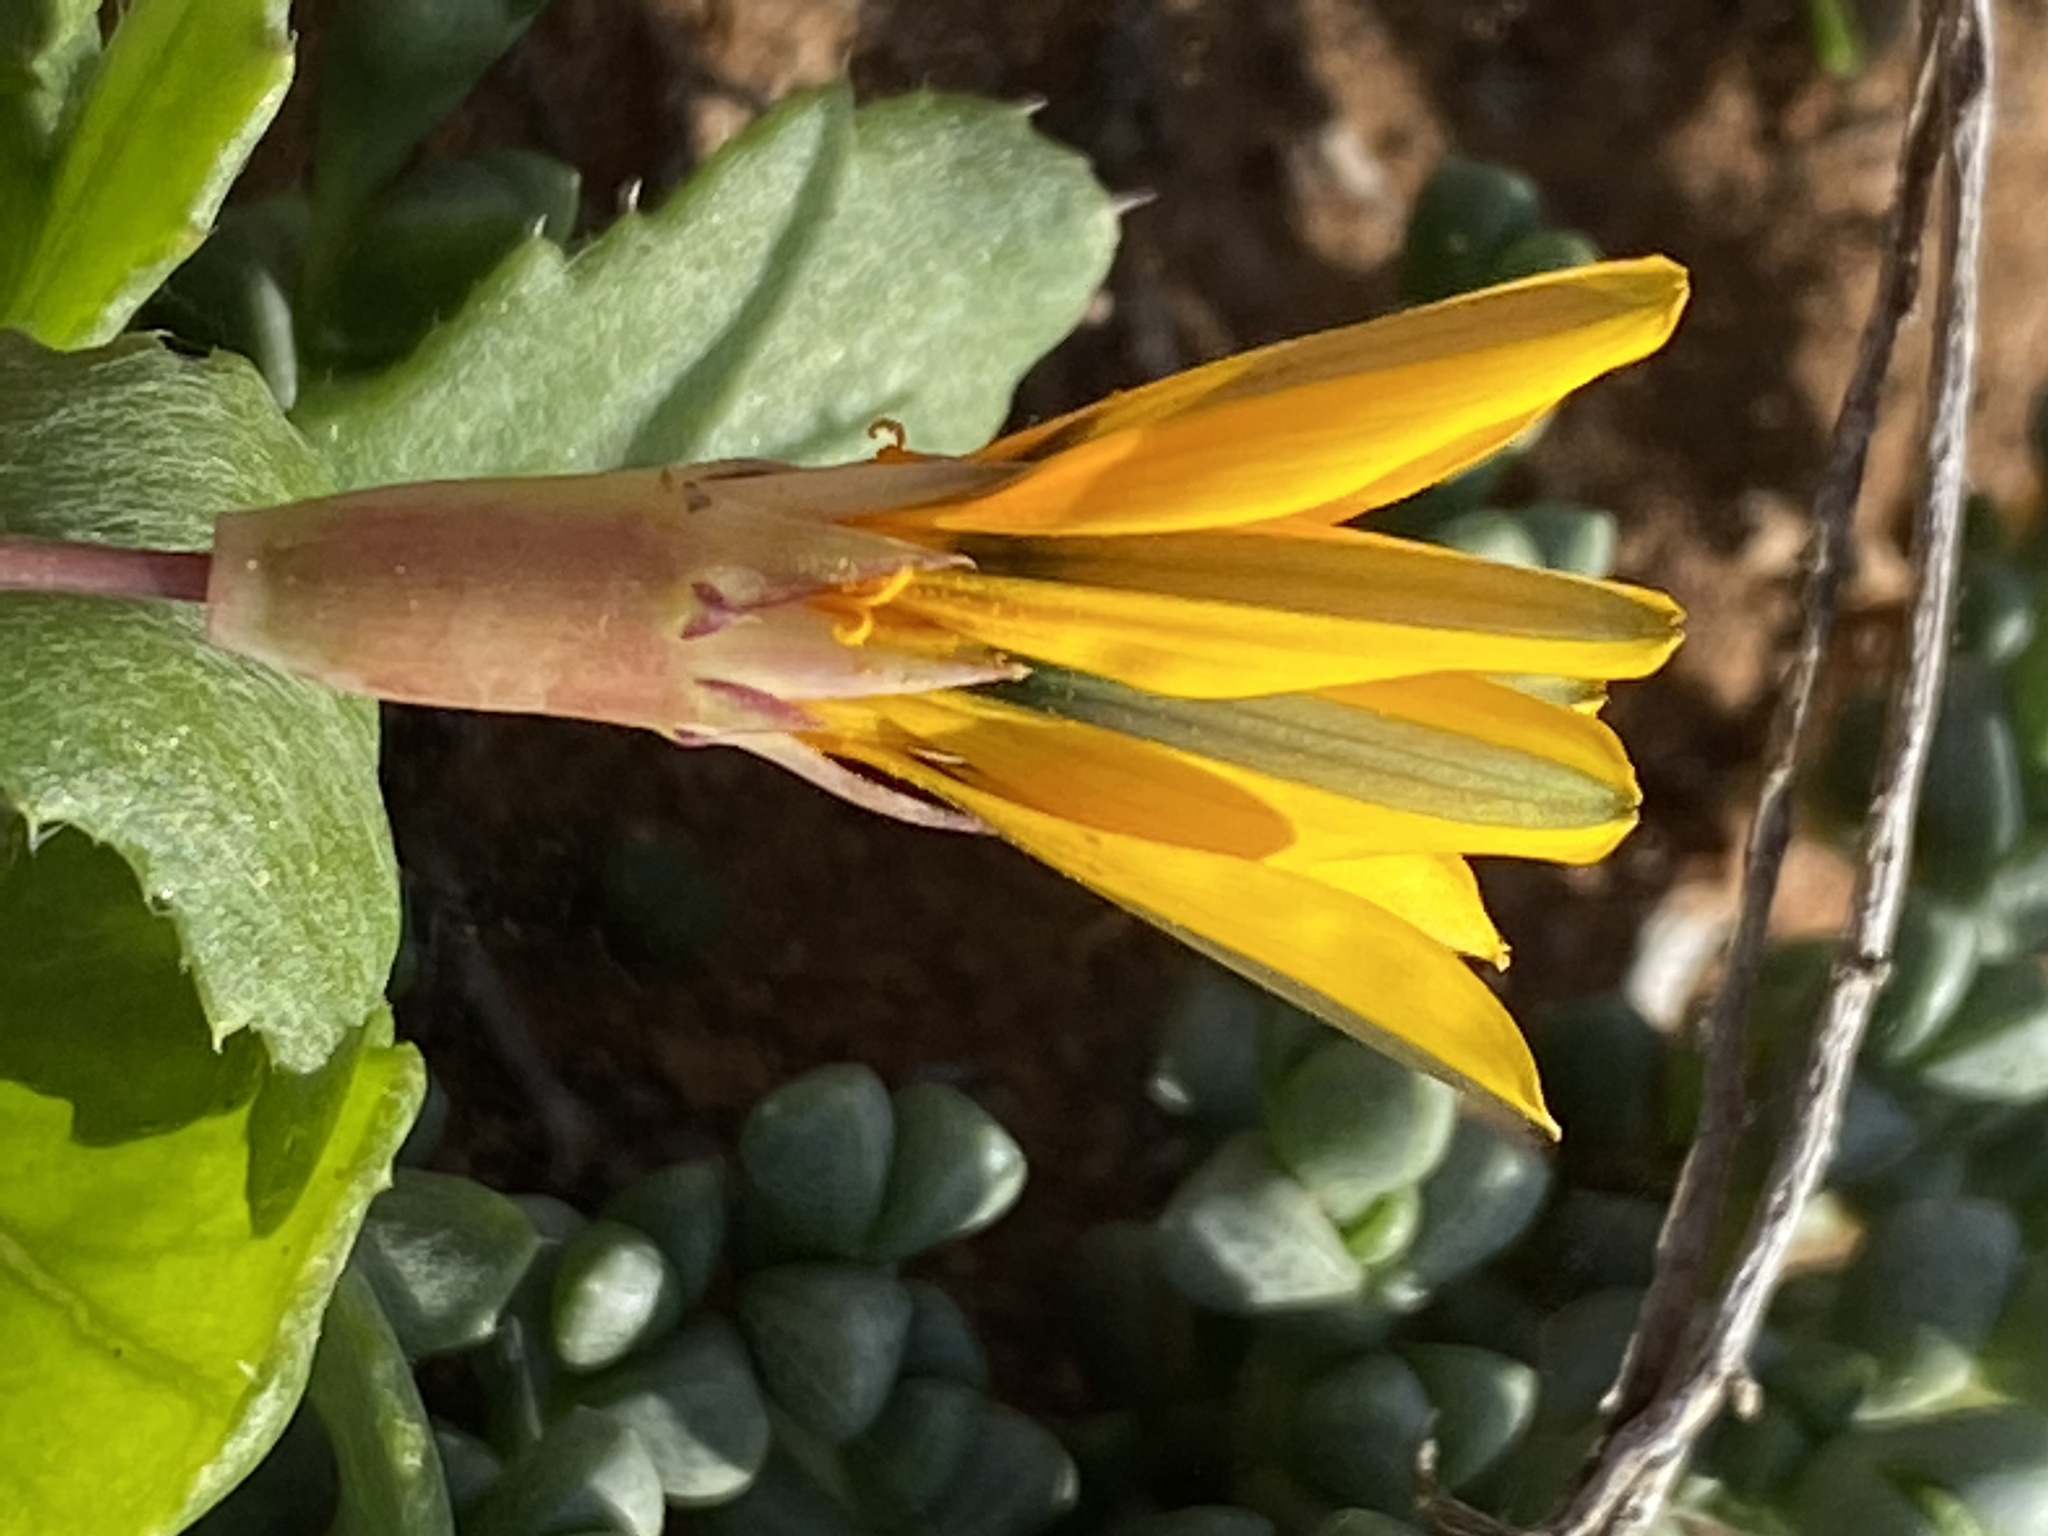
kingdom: Plantae
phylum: Tracheophyta
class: Magnoliopsida
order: Asterales
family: Asteraceae
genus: Gazania
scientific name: Gazania lichtensteinii
